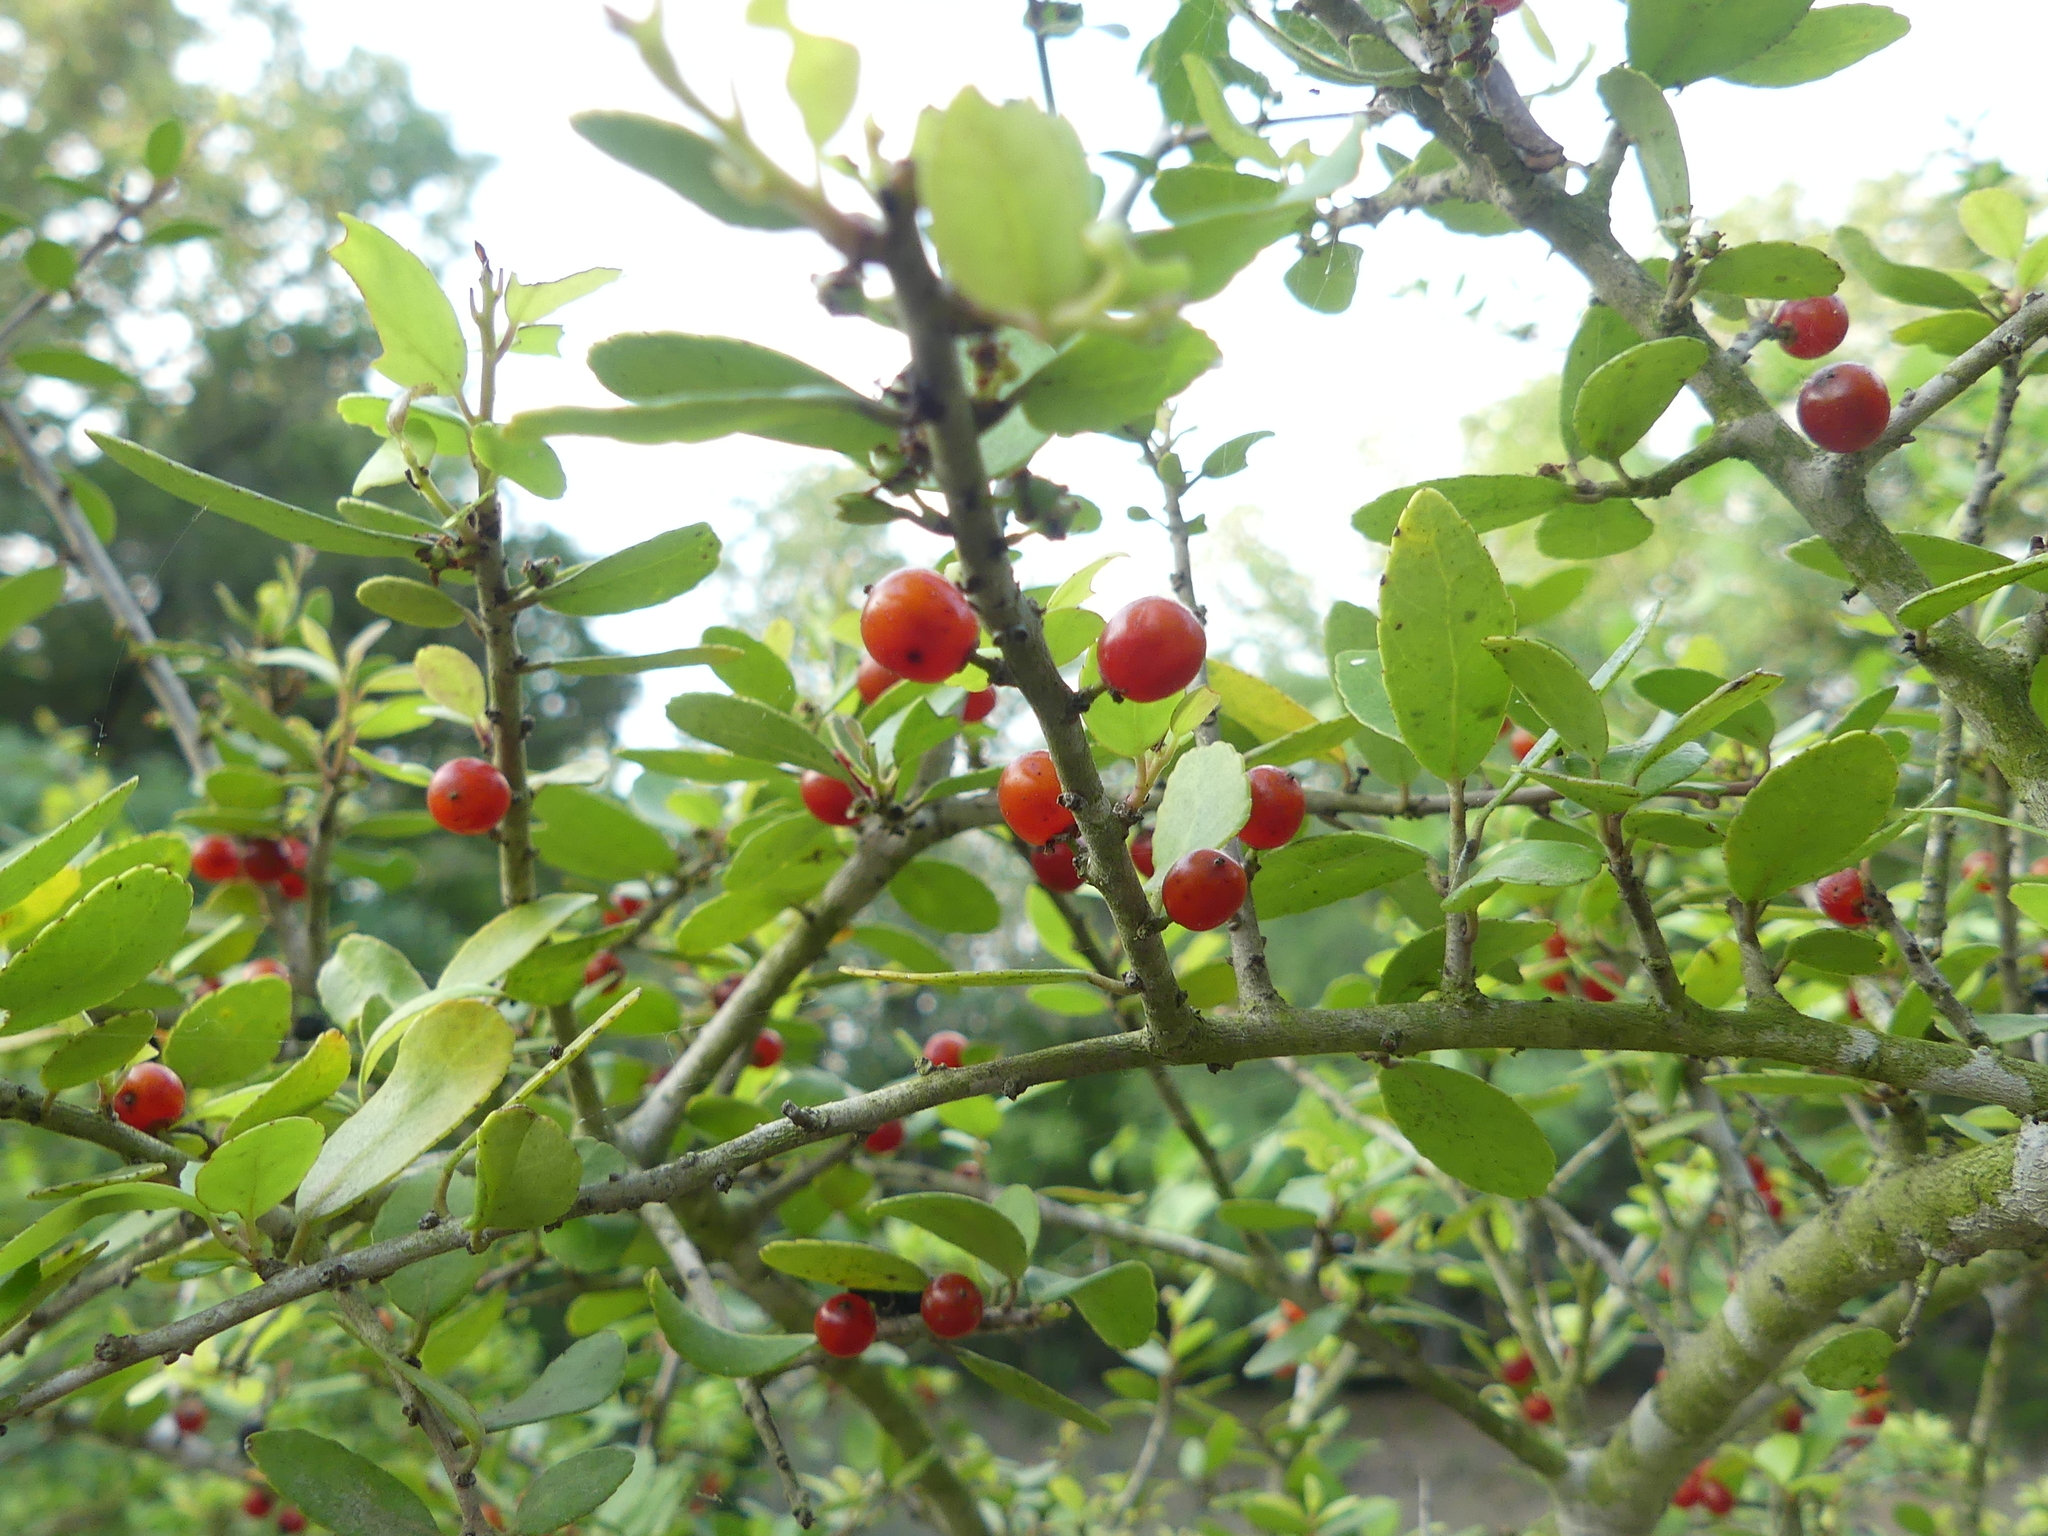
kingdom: Plantae
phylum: Tracheophyta
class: Magnoliopsida
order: Aquifoliales
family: Aquifoliaceae
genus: Ilex
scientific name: Ilex vomitoria
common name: Yaupon holly
